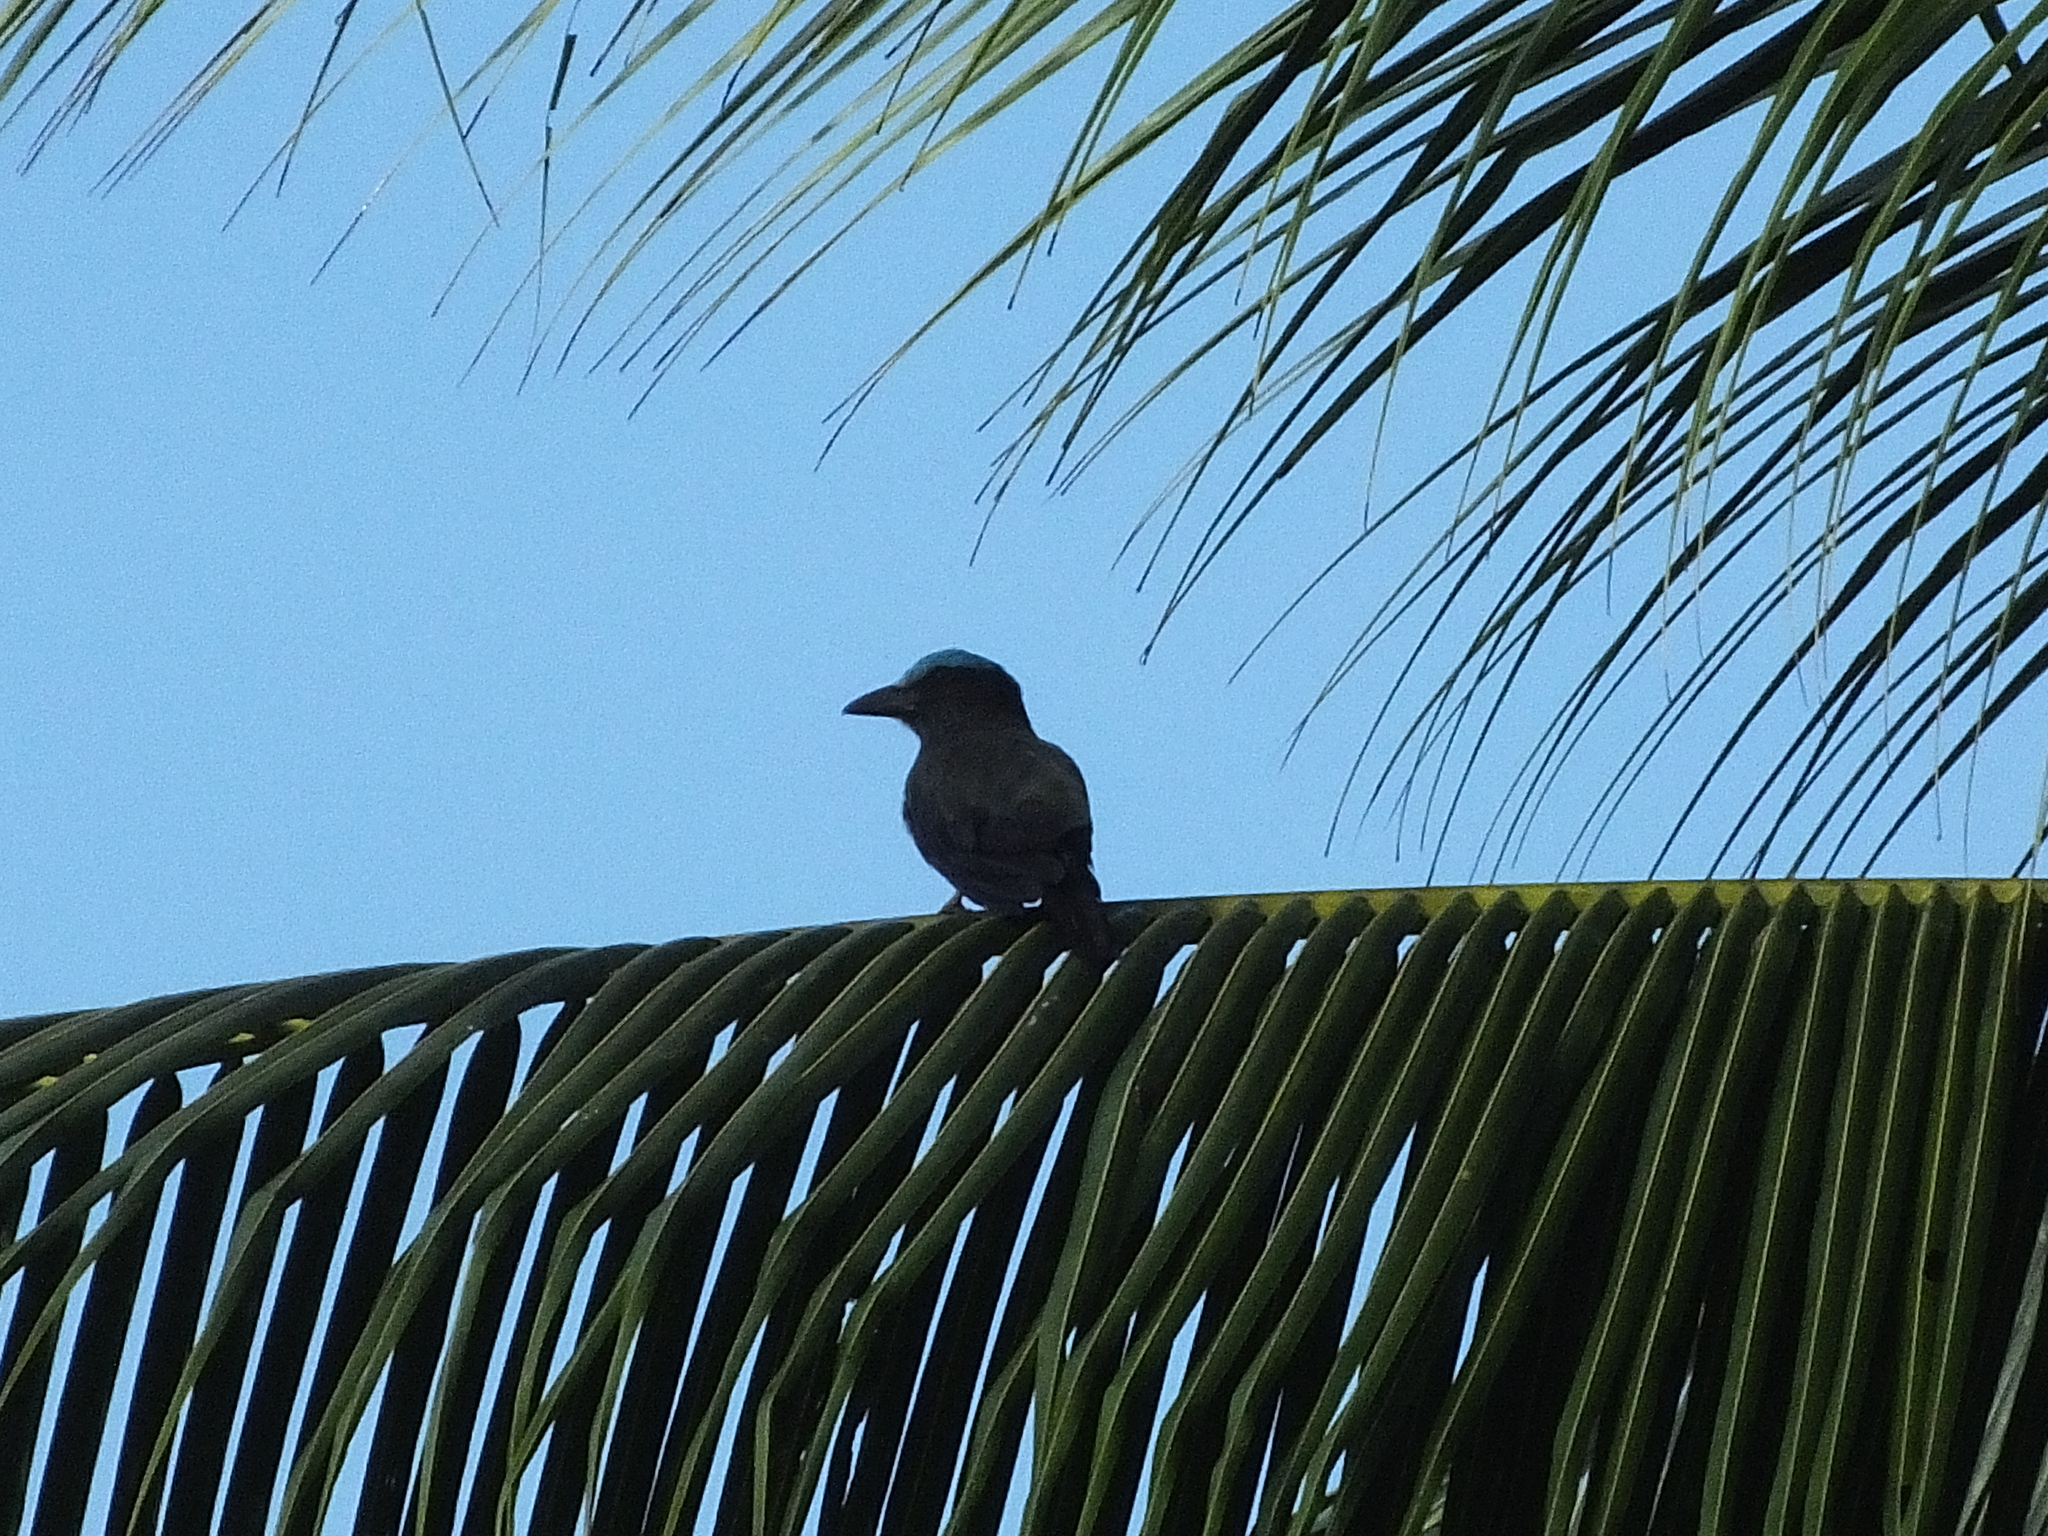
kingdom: Animalia
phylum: Chordata
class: Aves
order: Coraciiformes
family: Coraciidae
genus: Coracias
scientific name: Coracias temminckii
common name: Purple-winged roller
